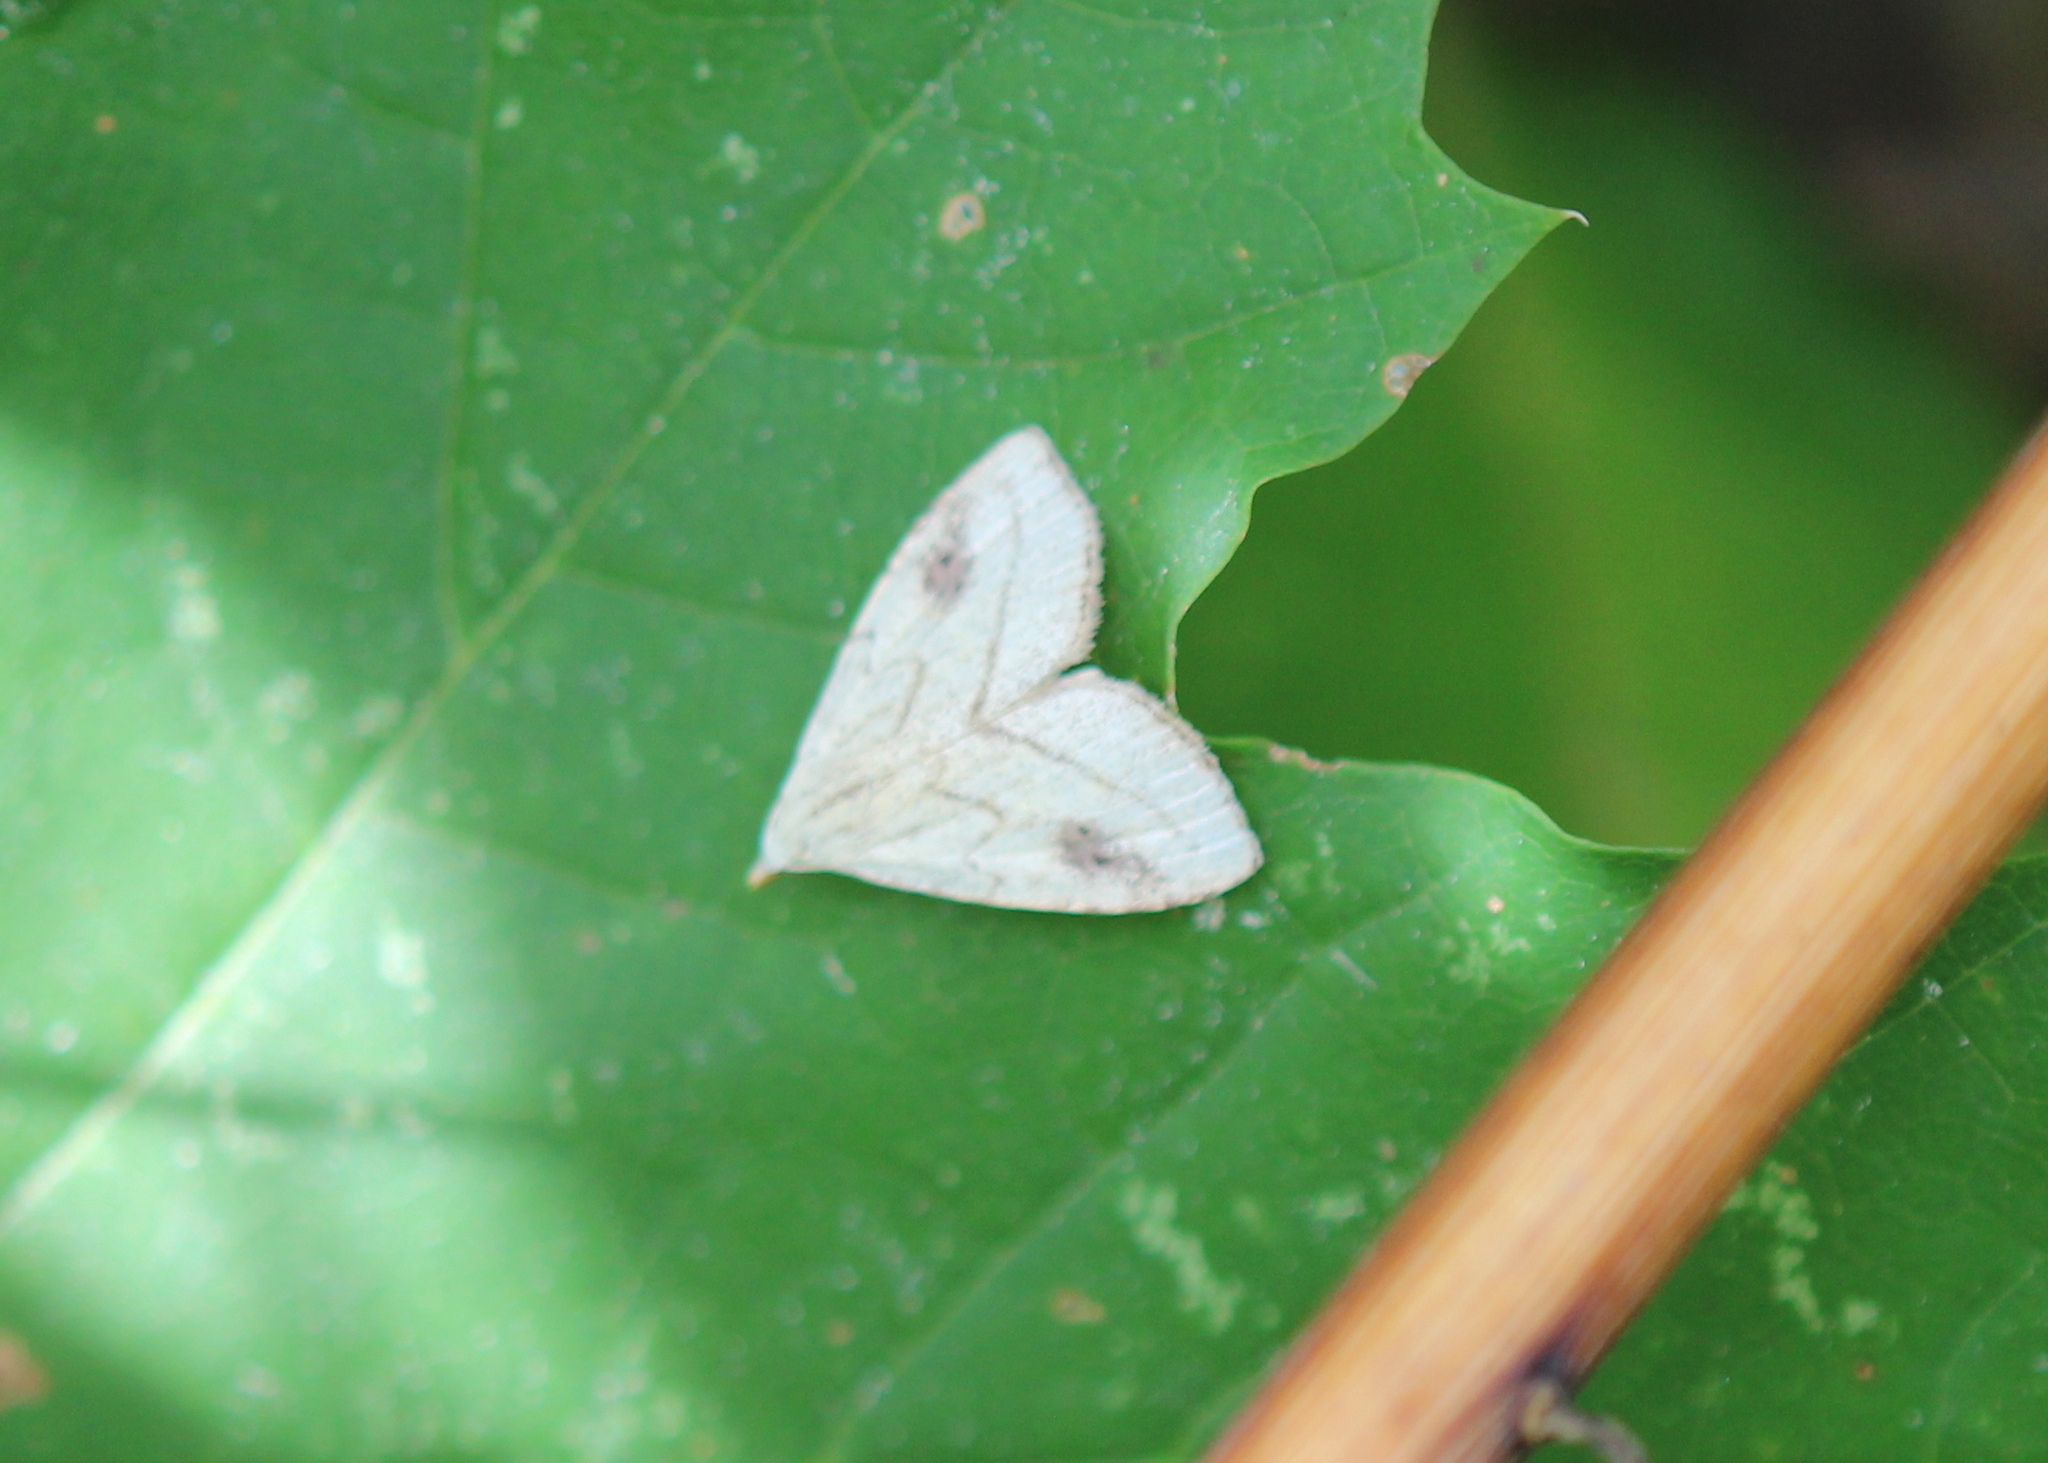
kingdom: Animalia
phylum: Arthropoda
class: Insecta
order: Lepidoptera
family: Erebidae
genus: Rivula
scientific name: Rivula propinqualis
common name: Spotted grass moth
